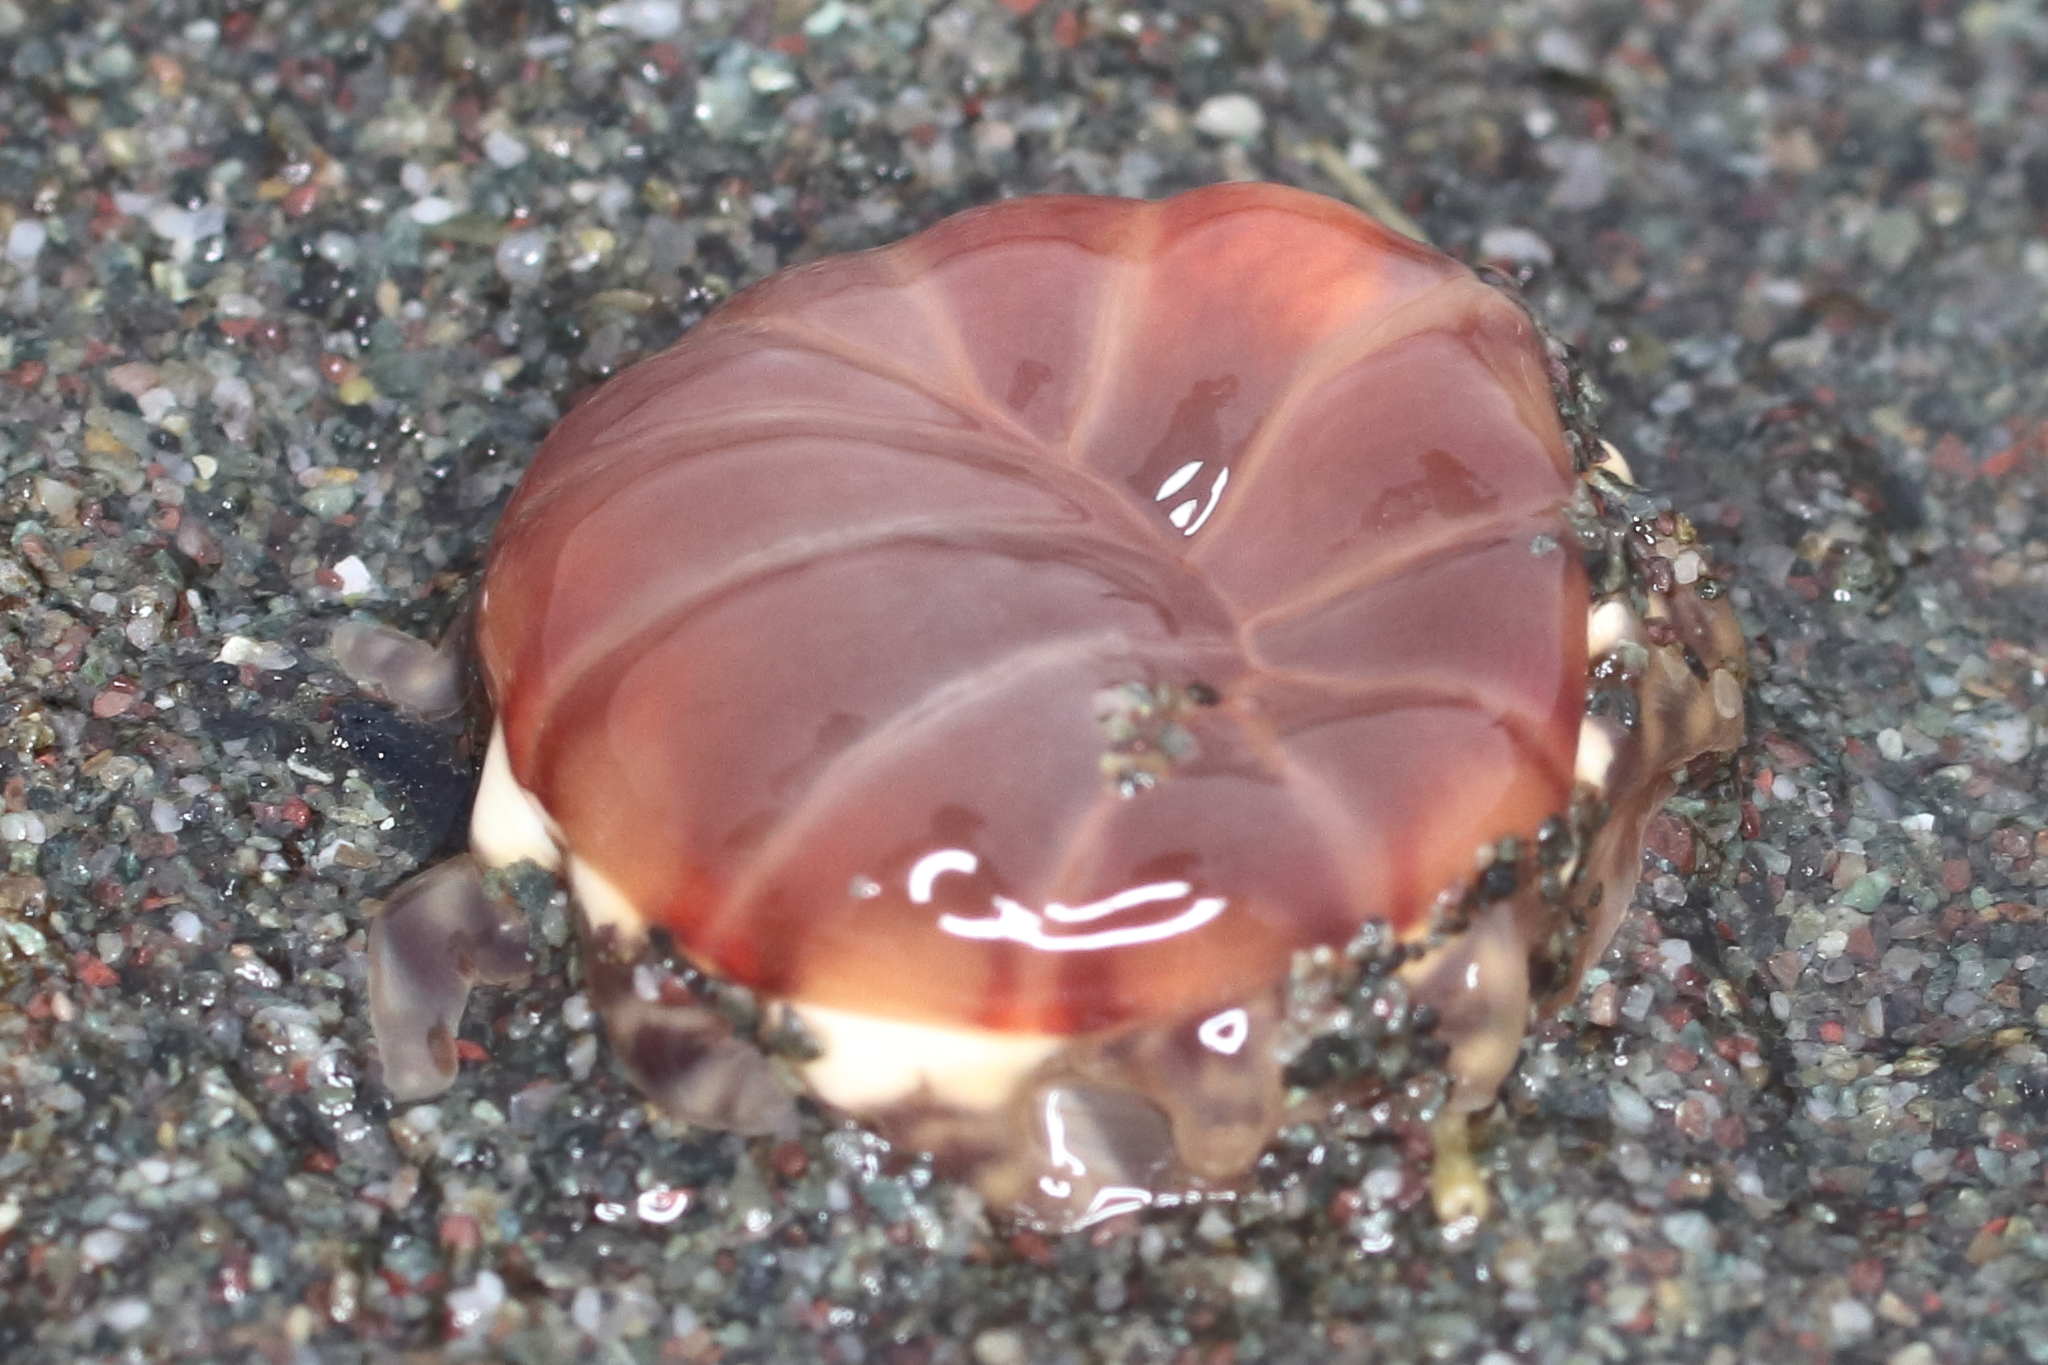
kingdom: Animalia
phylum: Cnidaria
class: Anthozoa
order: Actiniaria
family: Peachiidae
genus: Peachia
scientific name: Peachia quinquecapitata
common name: Twelve-tentacled parasitic anemone
